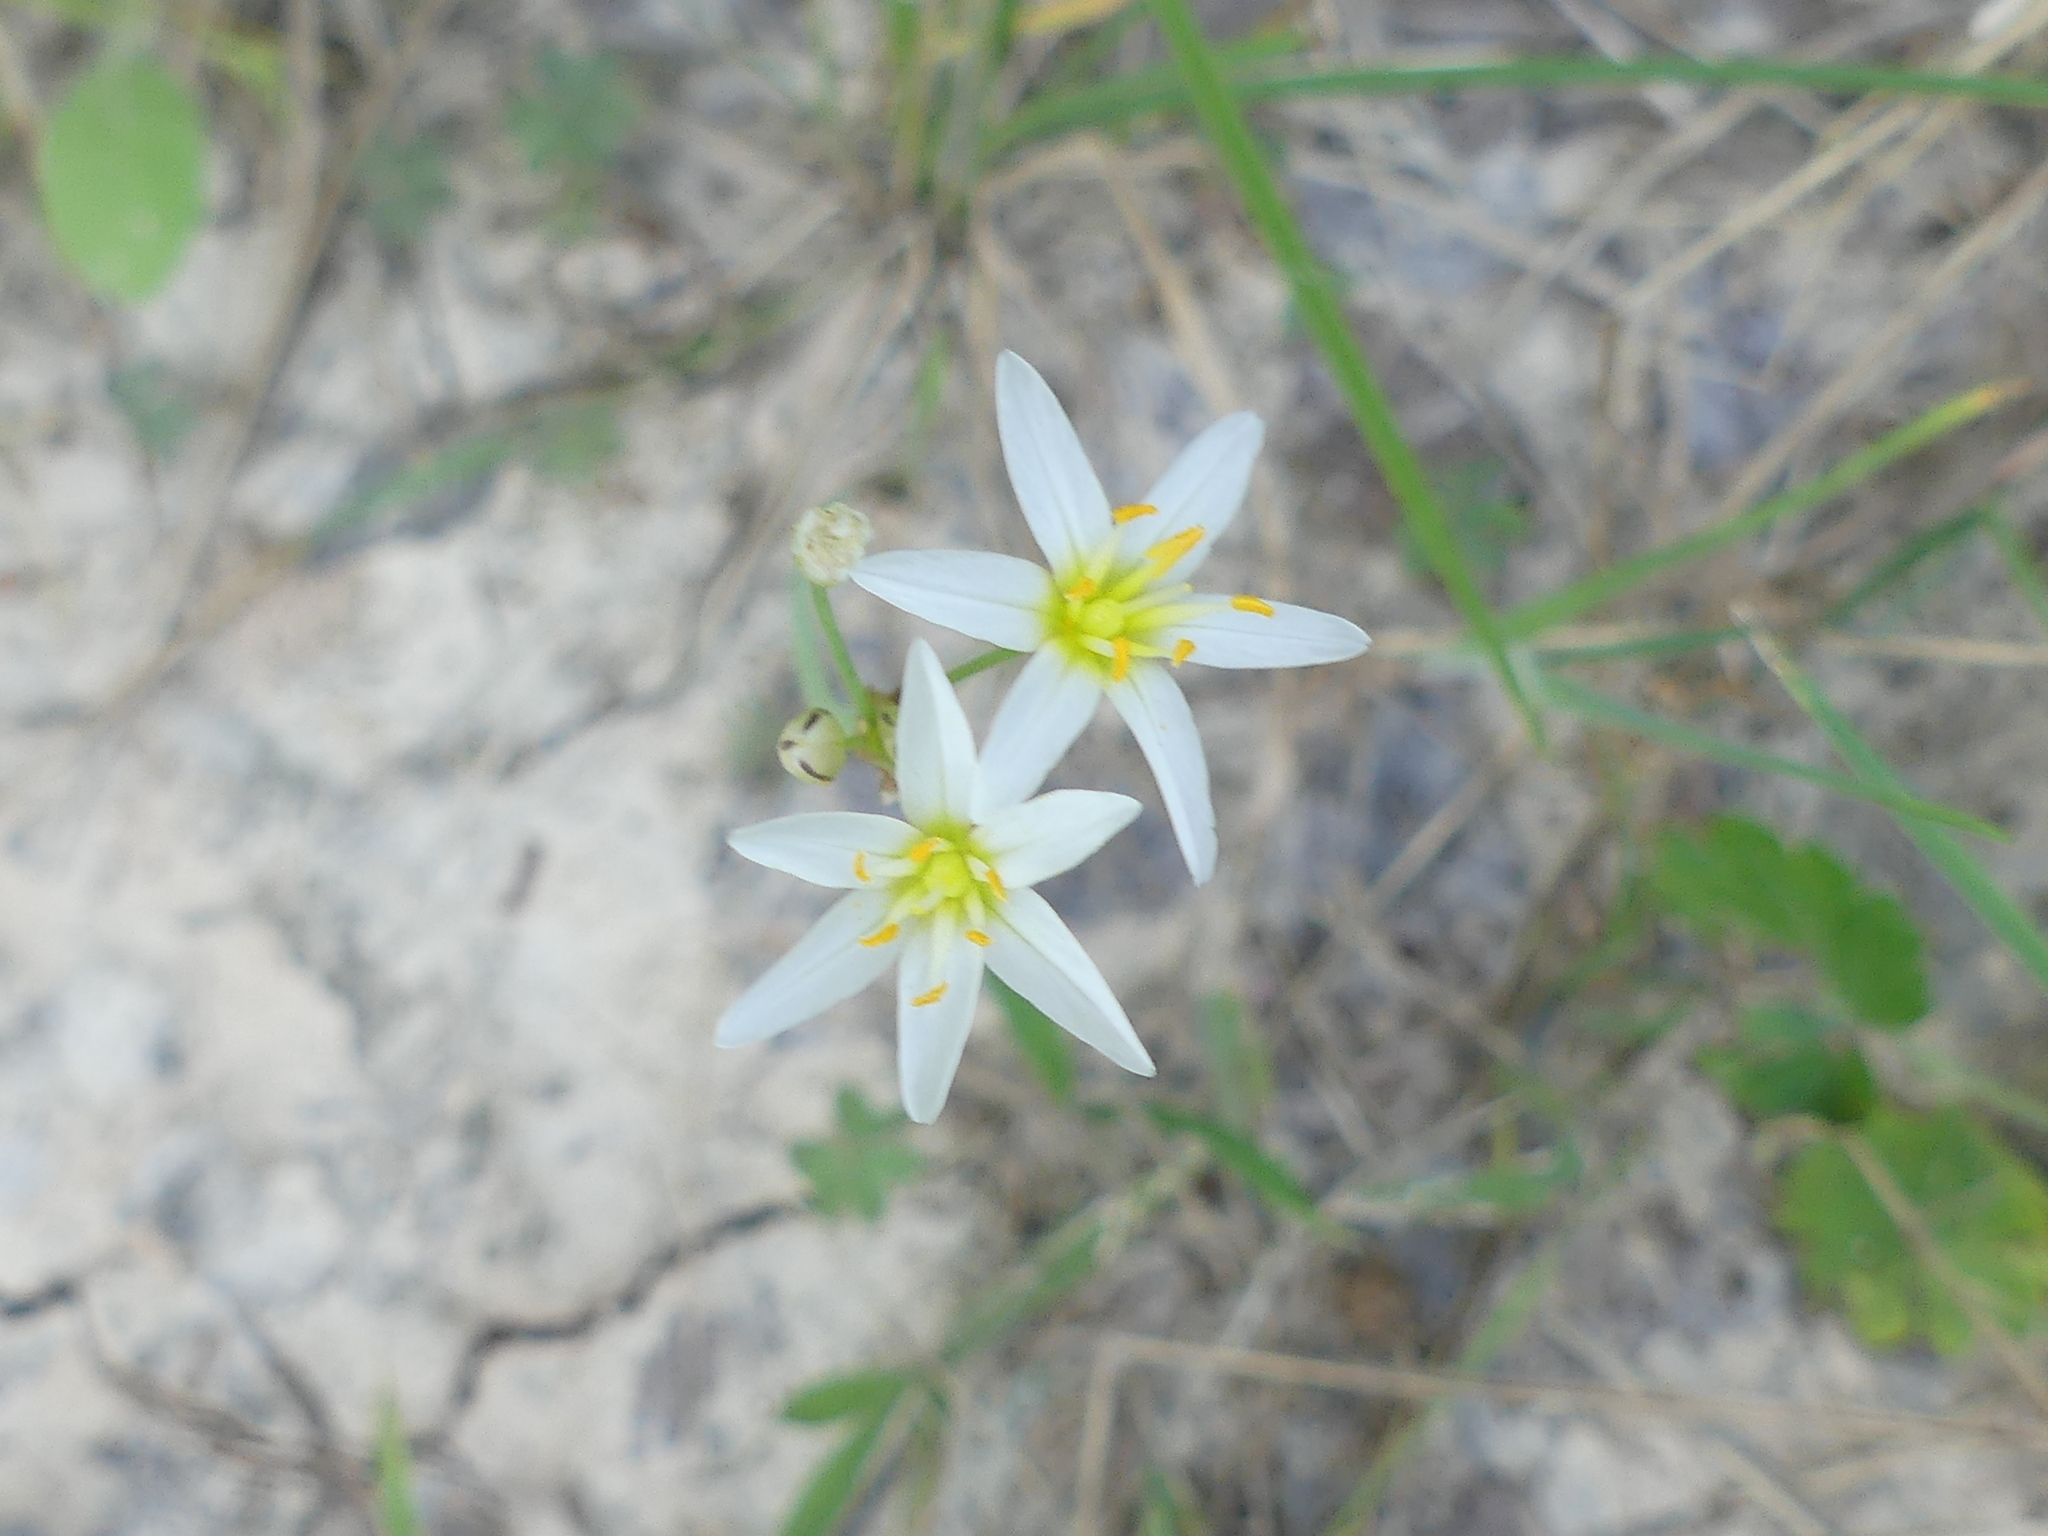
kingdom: Plantae
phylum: Tracheophyta
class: Liliopsida
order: Asparagales
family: Amaryllidaceae
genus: Nothoscordum
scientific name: Nothoscordum bivalve
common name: Crow-poison
